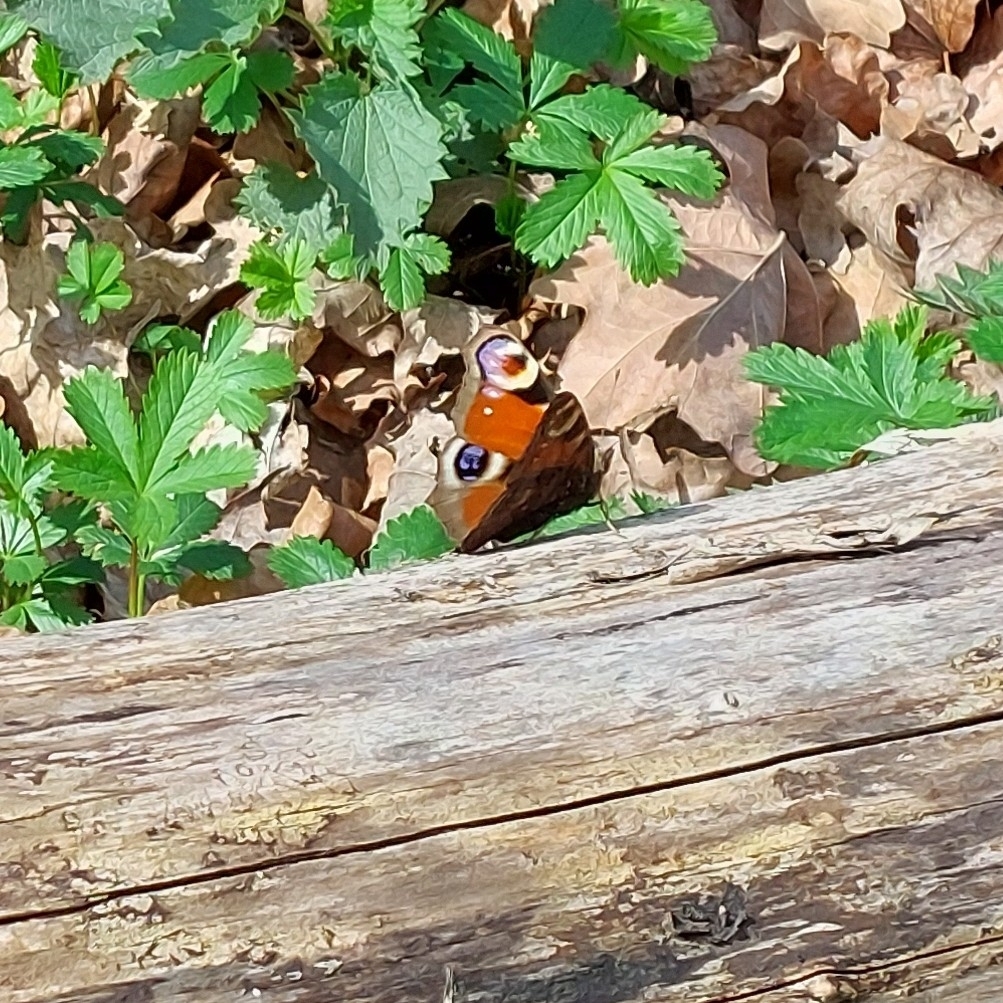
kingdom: Animalia
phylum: Arthropoda
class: Insecta
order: Lepidoptera
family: Nymphalidae
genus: Aglais
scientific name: Aglais io
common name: Peacock
